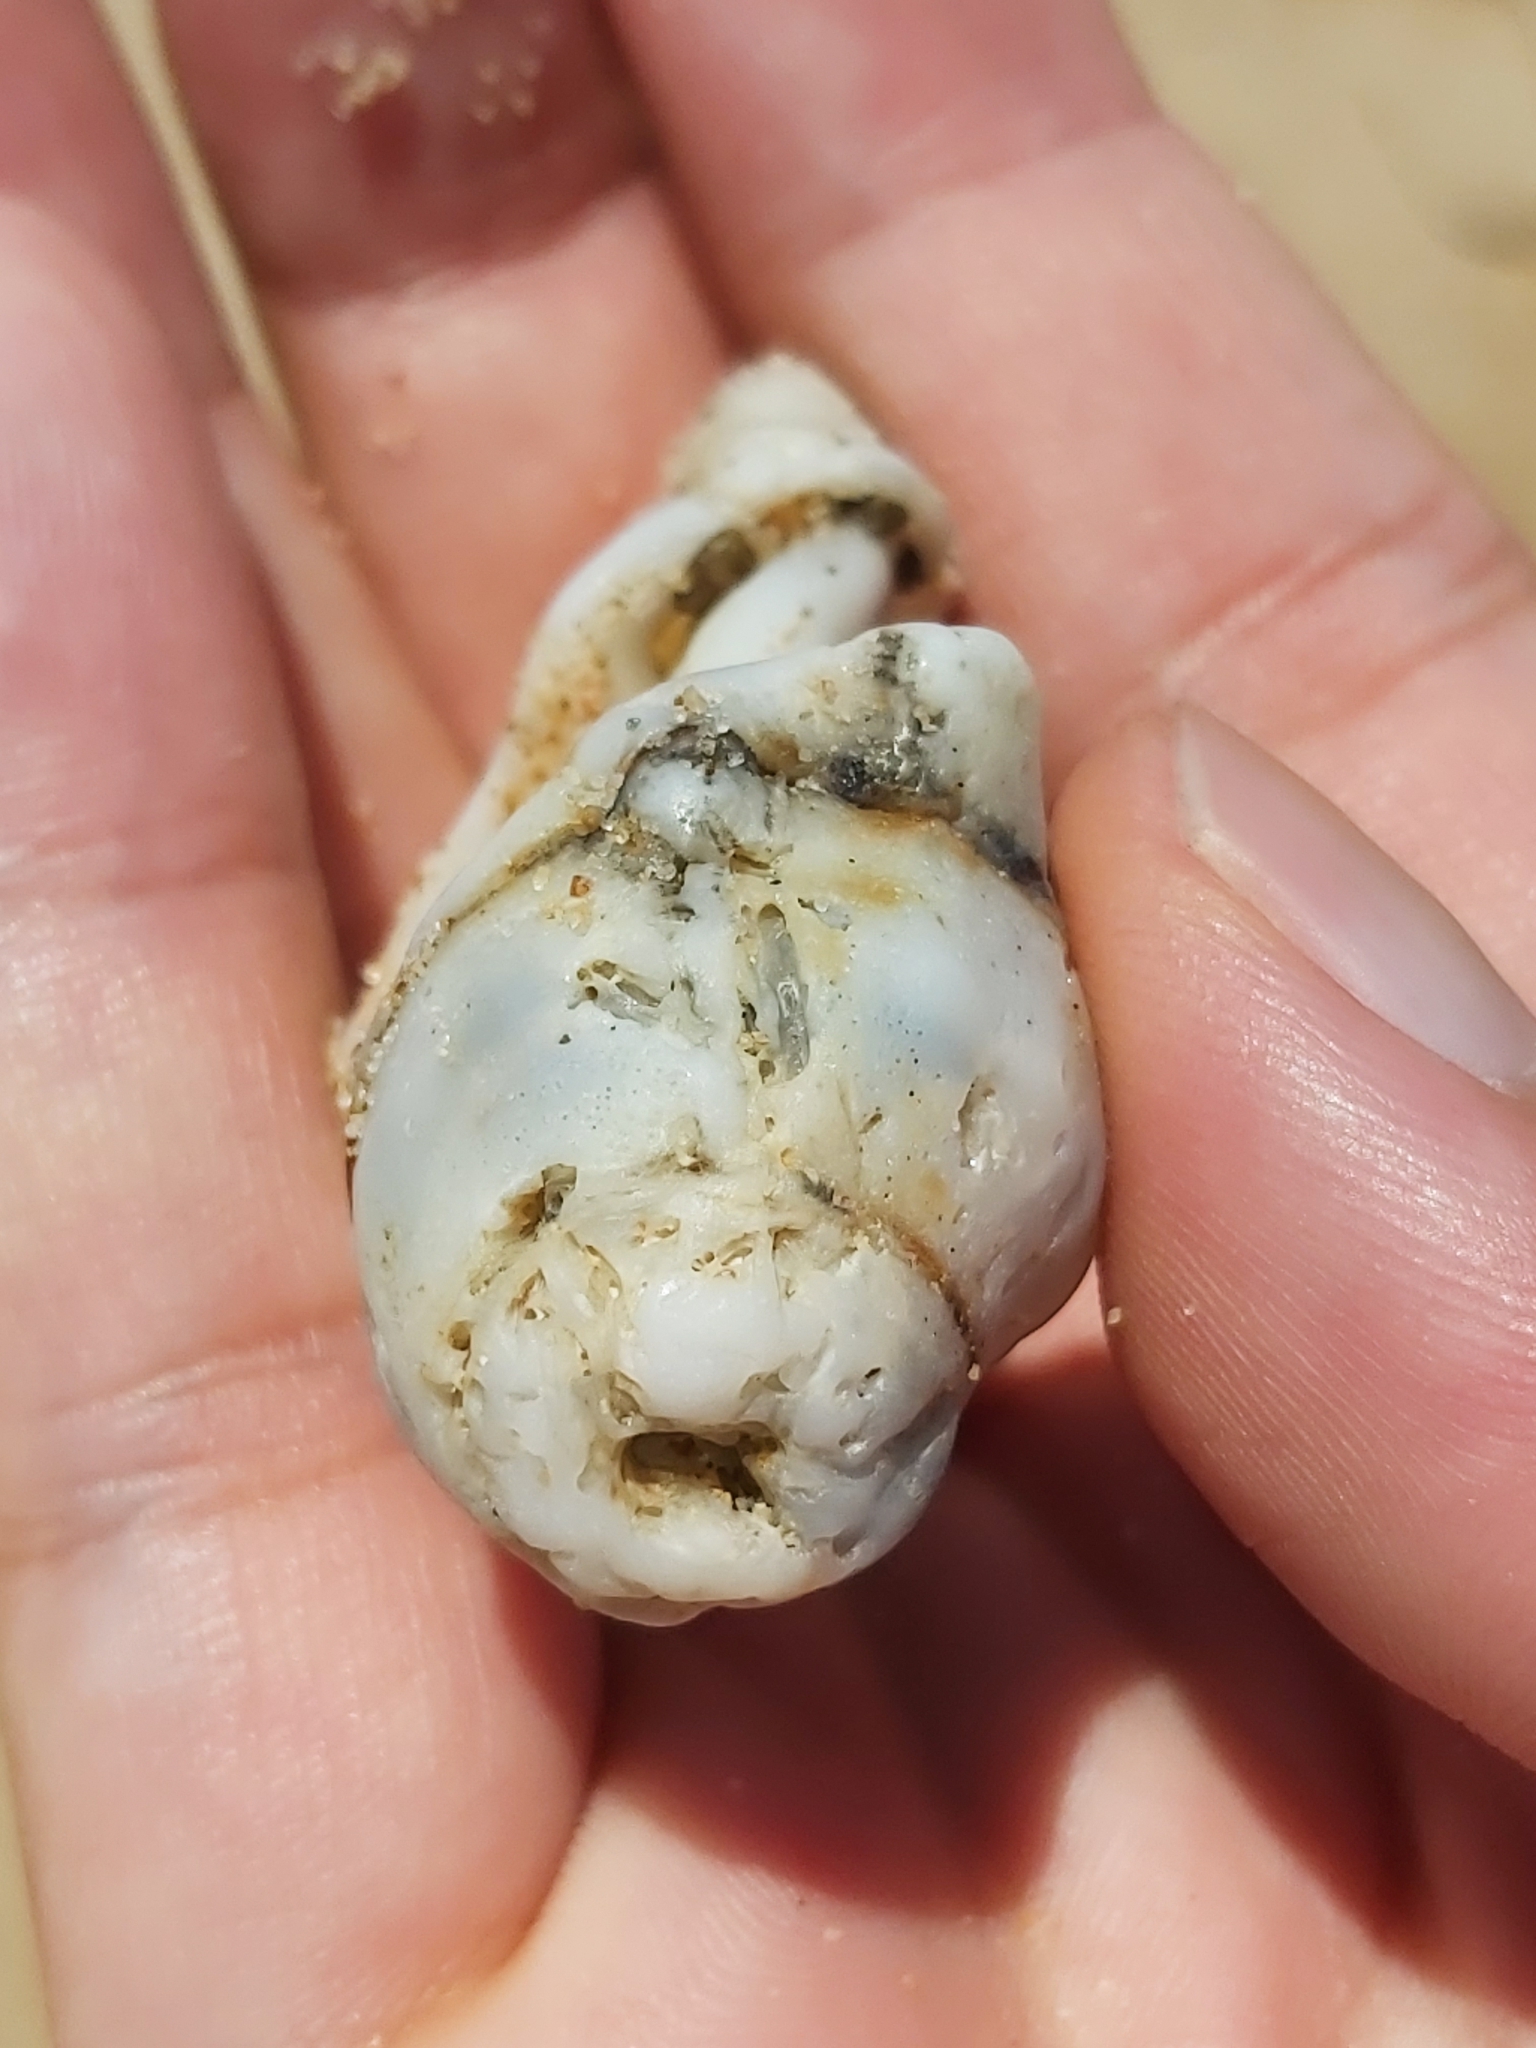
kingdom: Animalia
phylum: Mollusca
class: Gastropoda
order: Littorinimorpha
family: Ranellidae
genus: Ranella
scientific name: Ranella australasia
